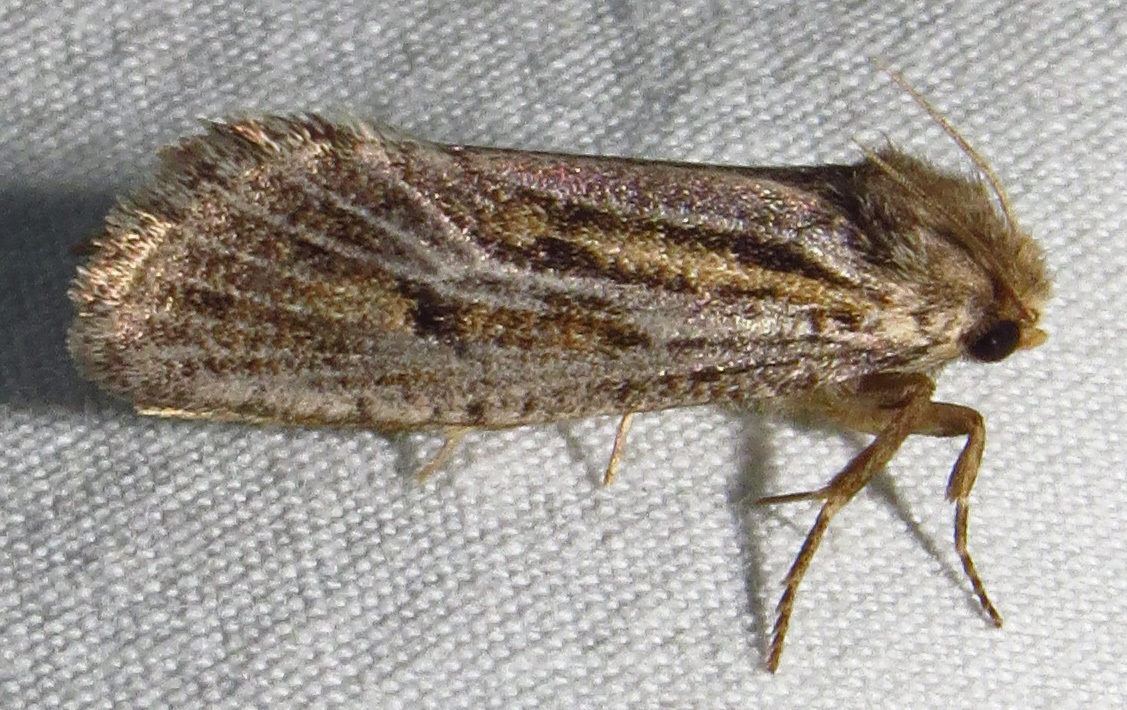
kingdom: Animalia
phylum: Arthropoda
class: Insecta
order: Lepidoptera
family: Tineidae
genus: Acrolophus
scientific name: Acrolophus popeanella
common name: Clemens' grass tubeworm moth
